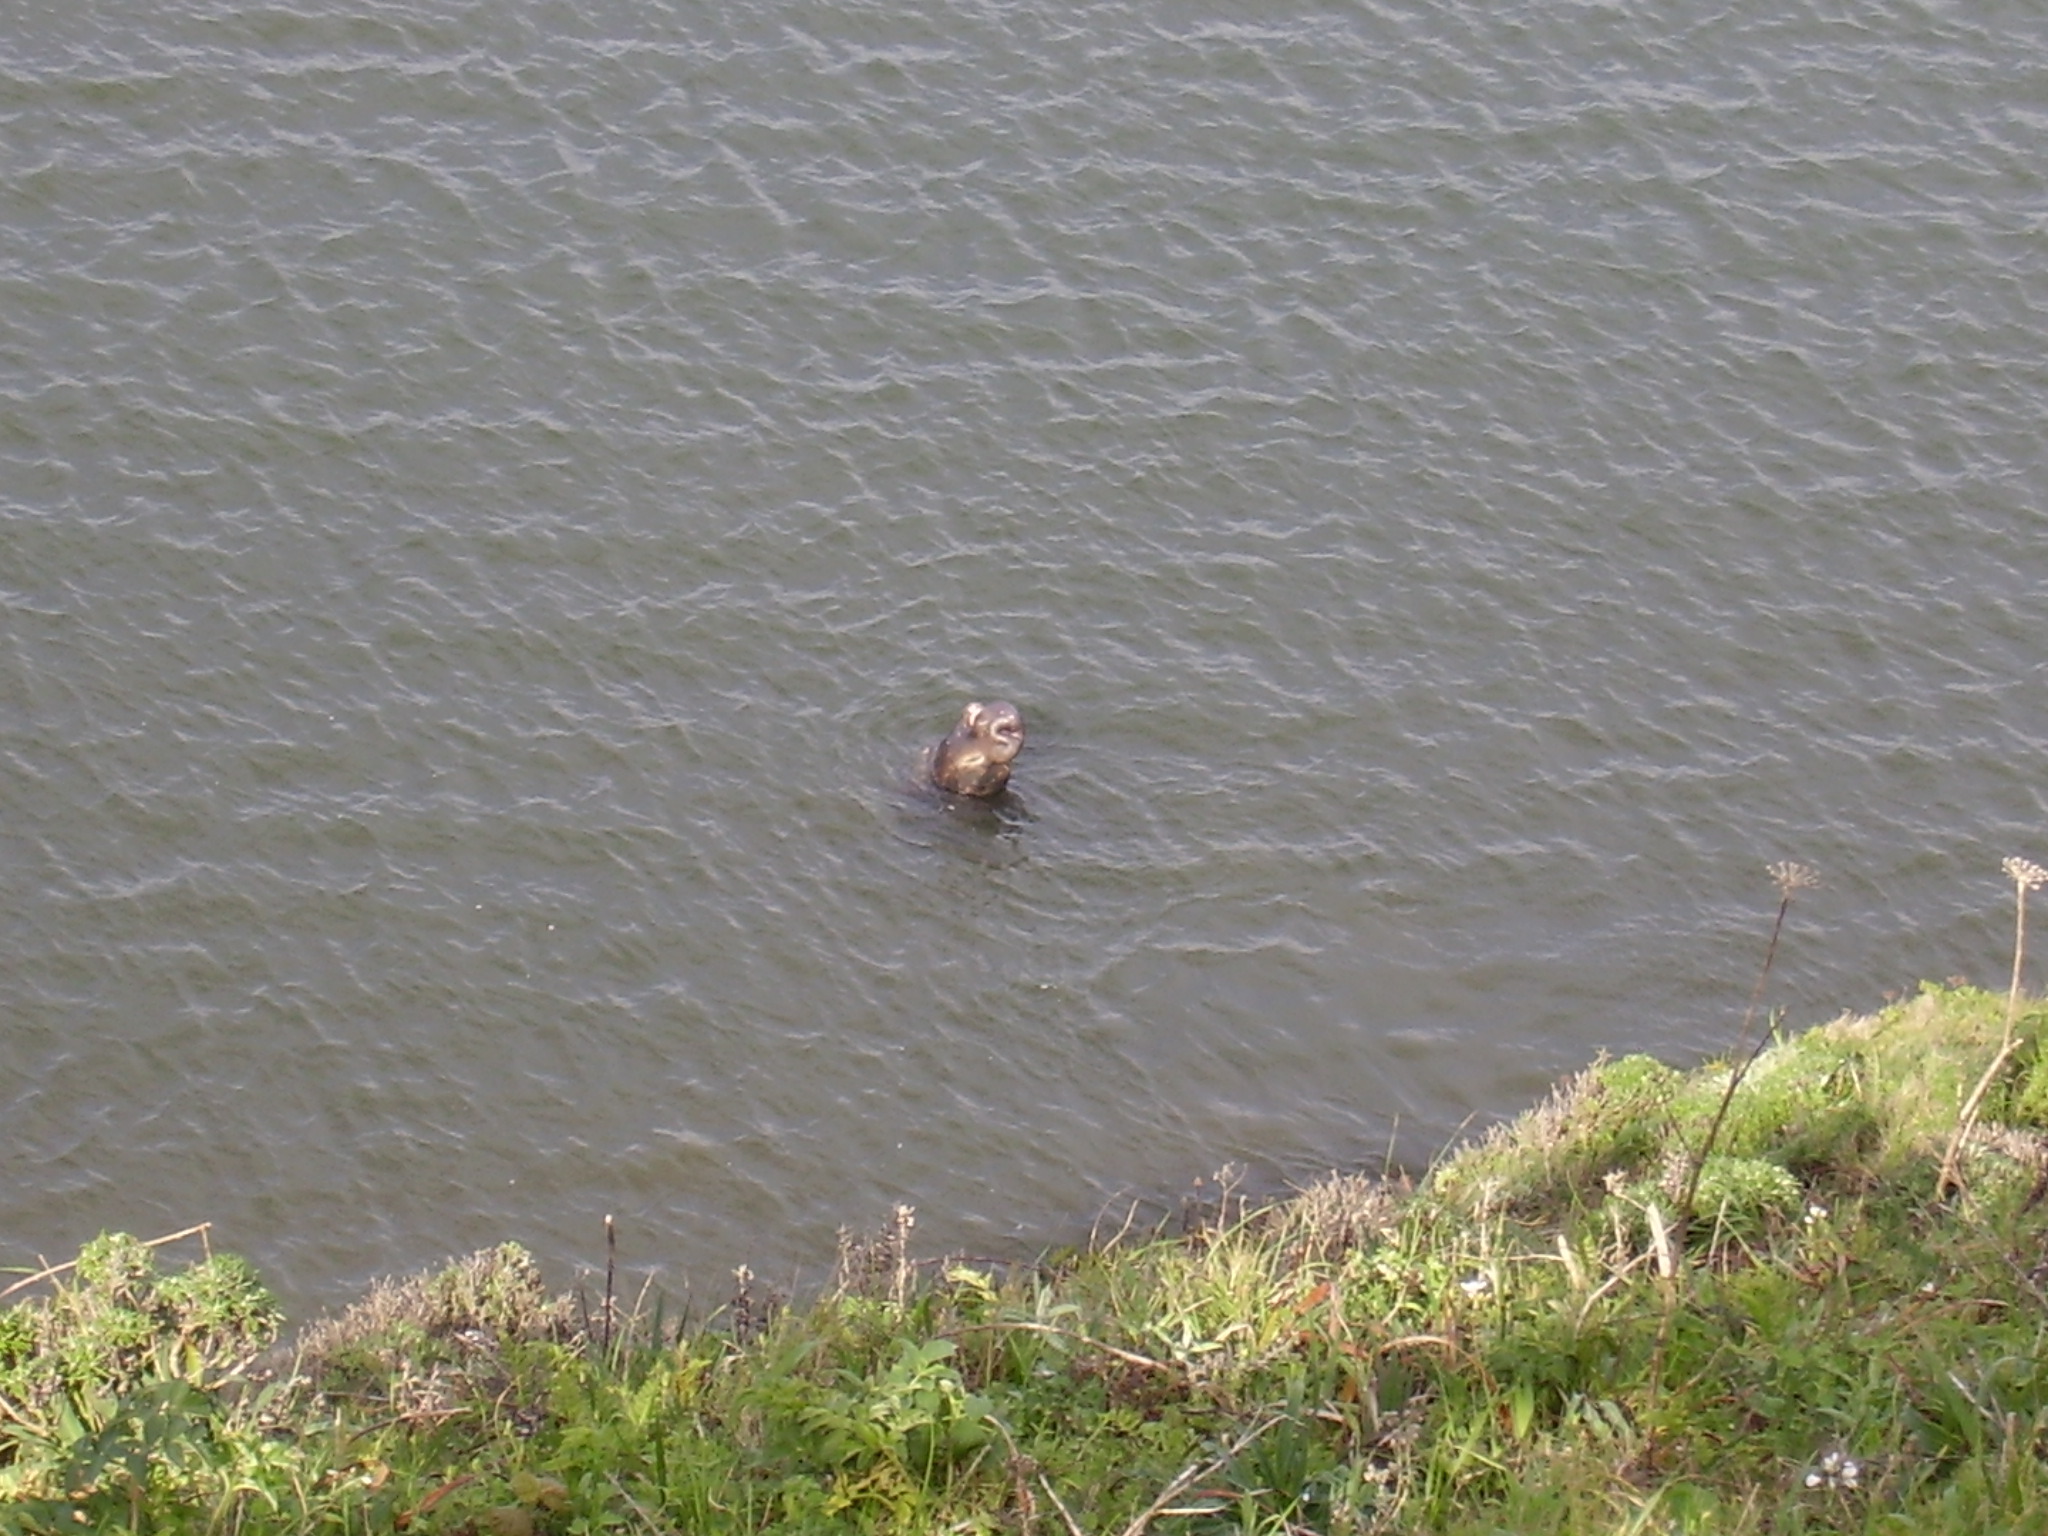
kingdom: Animalia
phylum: Chordata
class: Mammalia
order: Carnivora
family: Phocidae
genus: Mirounga
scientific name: Mirounga angustirostris
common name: Northern elephant seal
